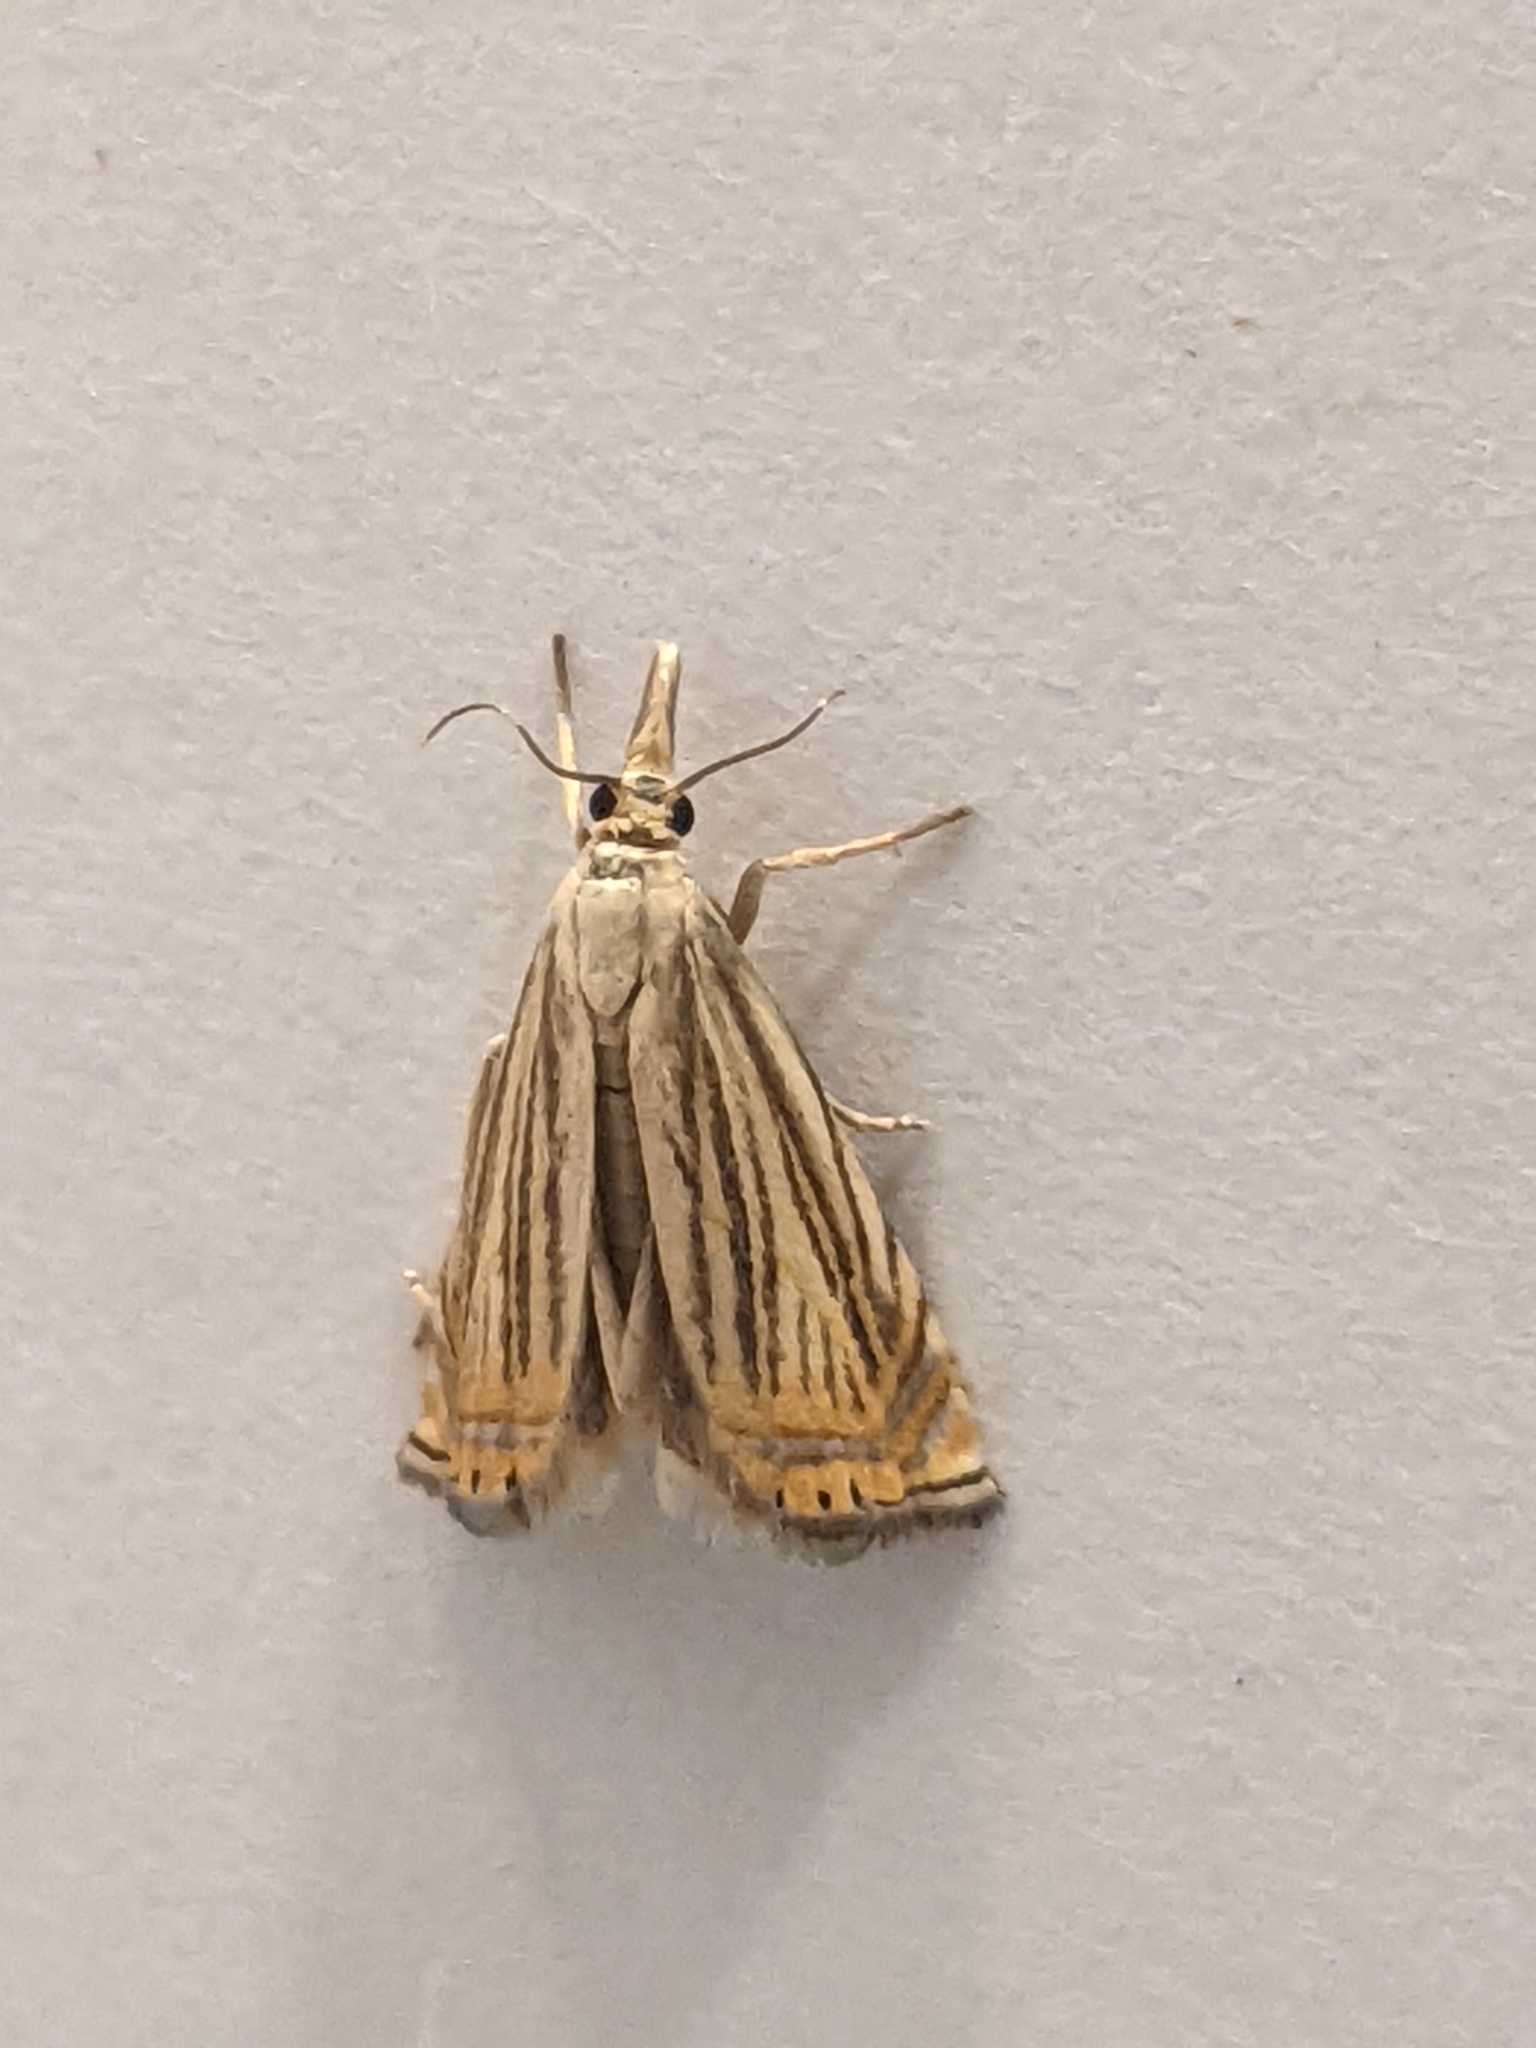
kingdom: Animalia
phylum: Arthropoda
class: Insecta
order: Lepidoptera
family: Crambidae
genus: Chrysoteuchia
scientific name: Chrysoteuchia topiarius
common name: Topiary grass-veneer
